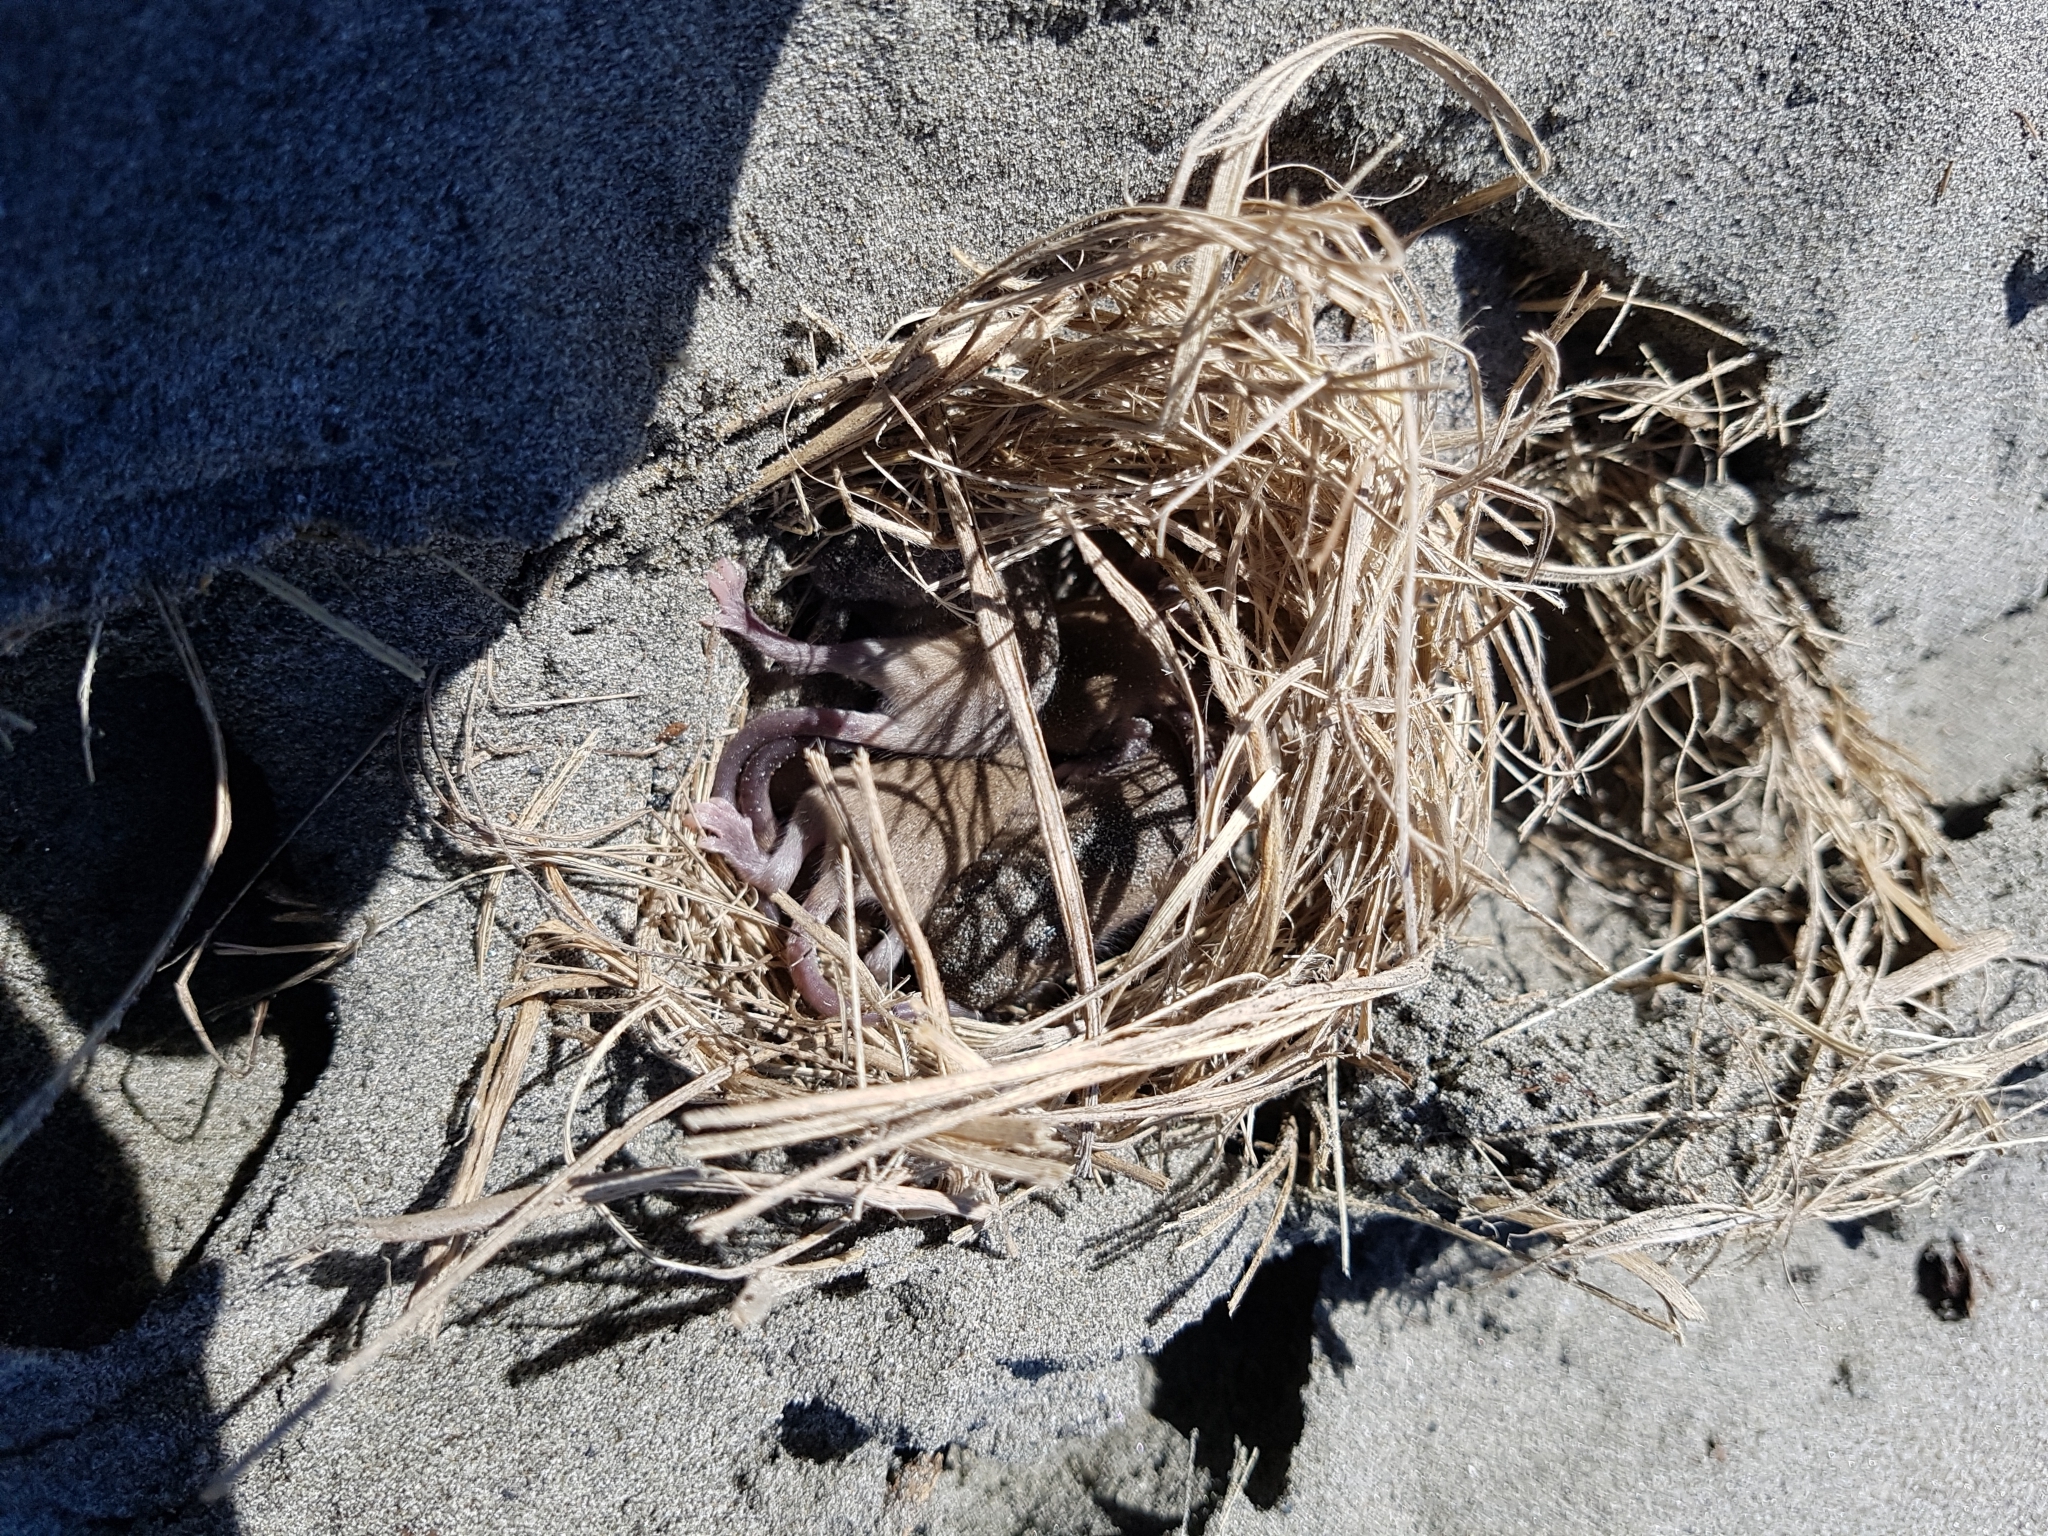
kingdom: Animalia
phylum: Chordata
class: Mammalia
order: Rodentia
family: Muridae
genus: Mus
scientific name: Mus musculus
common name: House mouse
